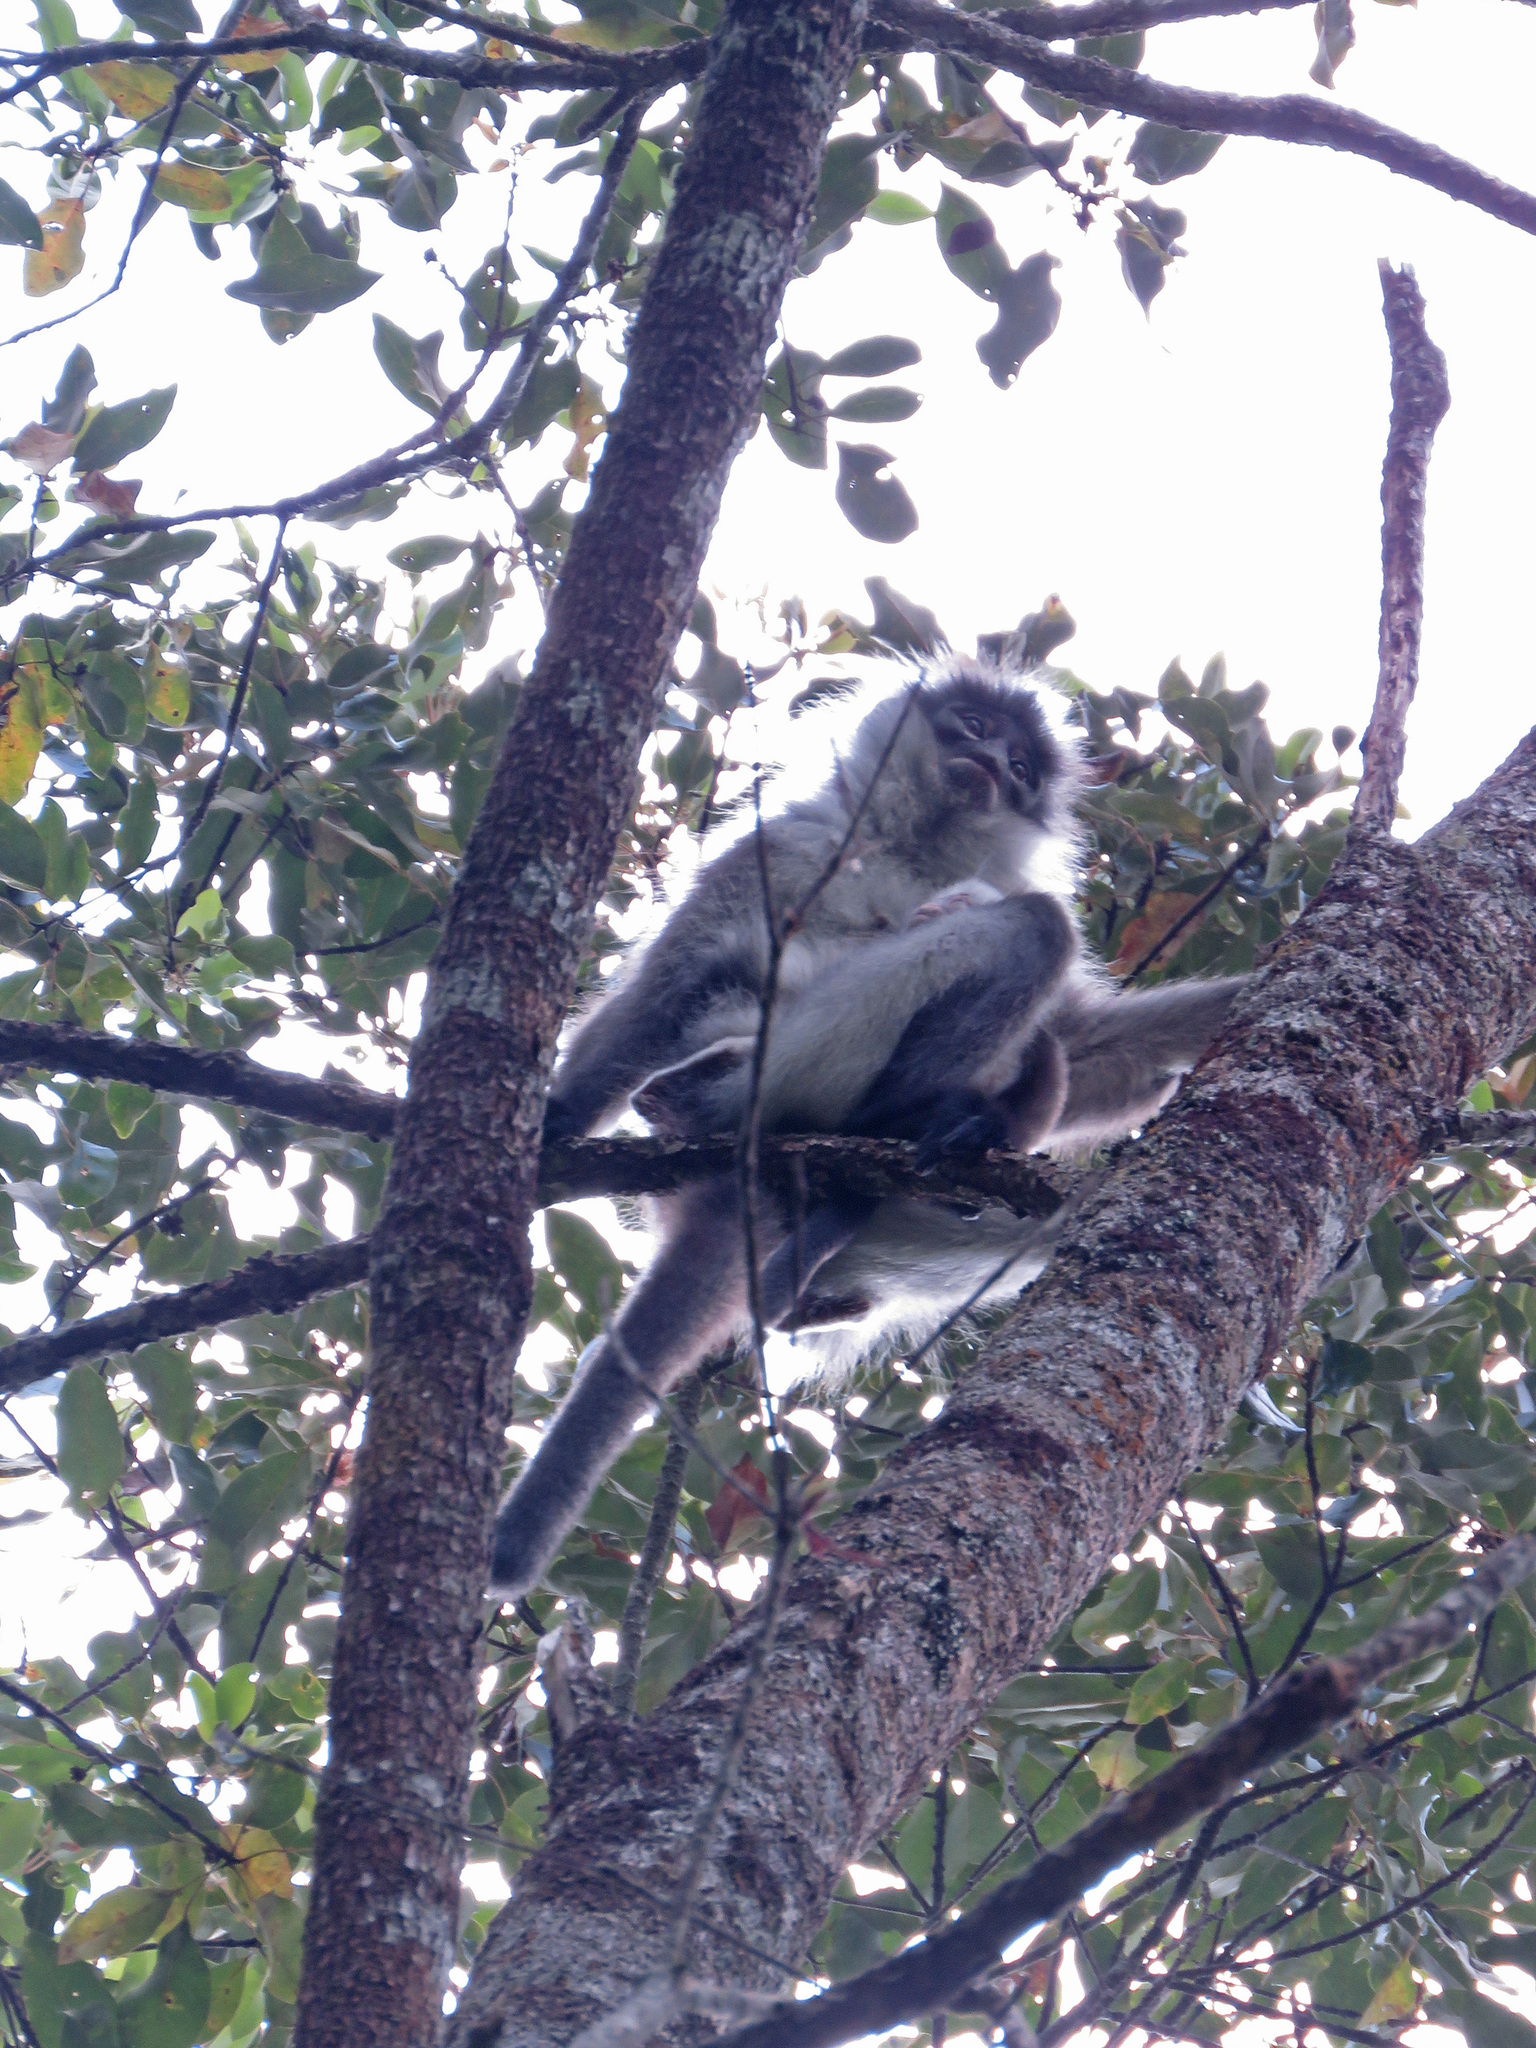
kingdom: Animalia
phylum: Chordata
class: Mammalia
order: Primates
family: Cercopithecidae
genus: Presbytis
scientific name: Presbytis siamensis
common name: White-thighed surili
